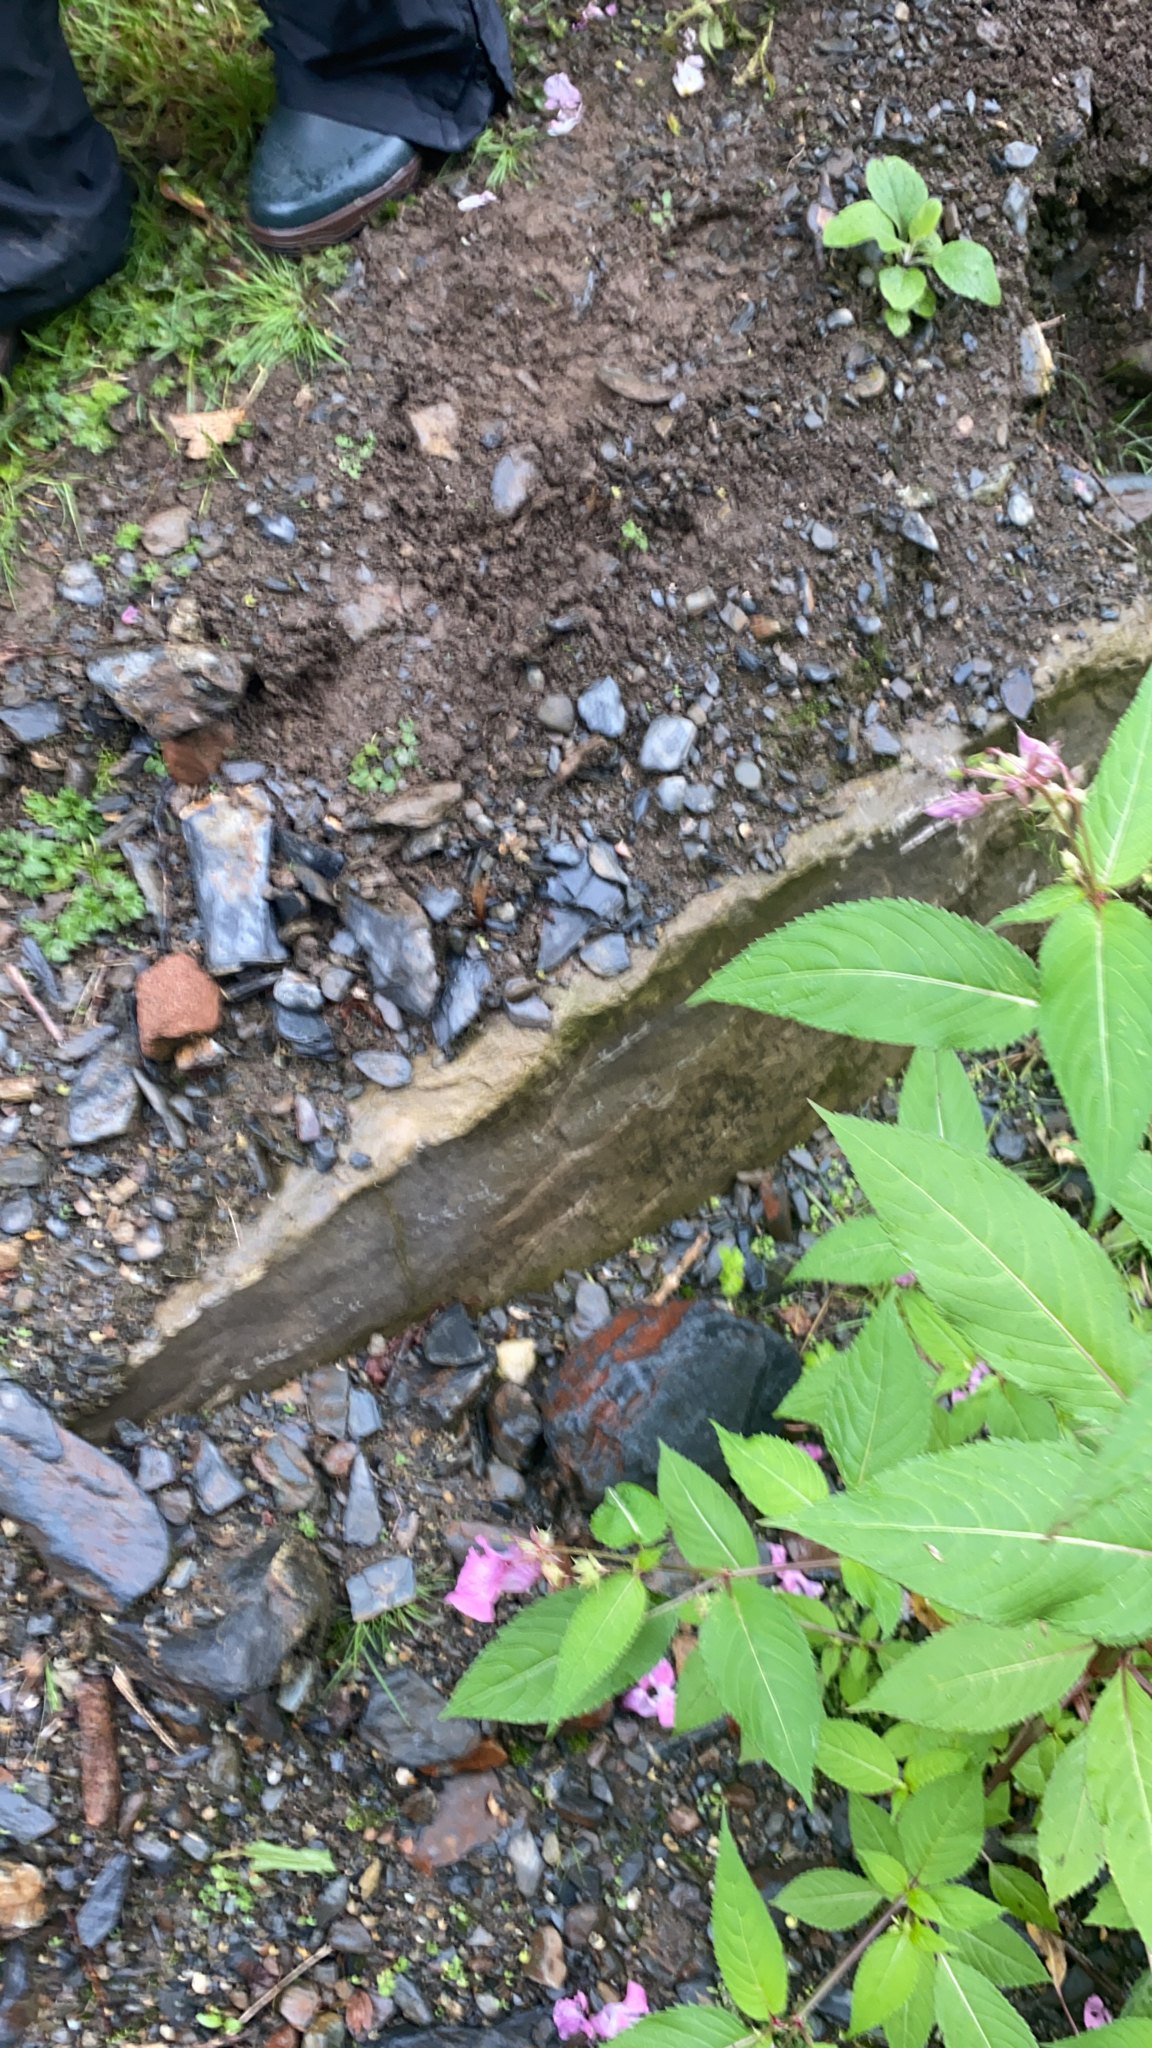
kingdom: Plantae
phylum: Tracheophyta
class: Magnoliopsida
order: Ericales
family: Balsaminaceae
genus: Impatiens
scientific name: Impatiens glandulifera
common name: Himalayan balsam
